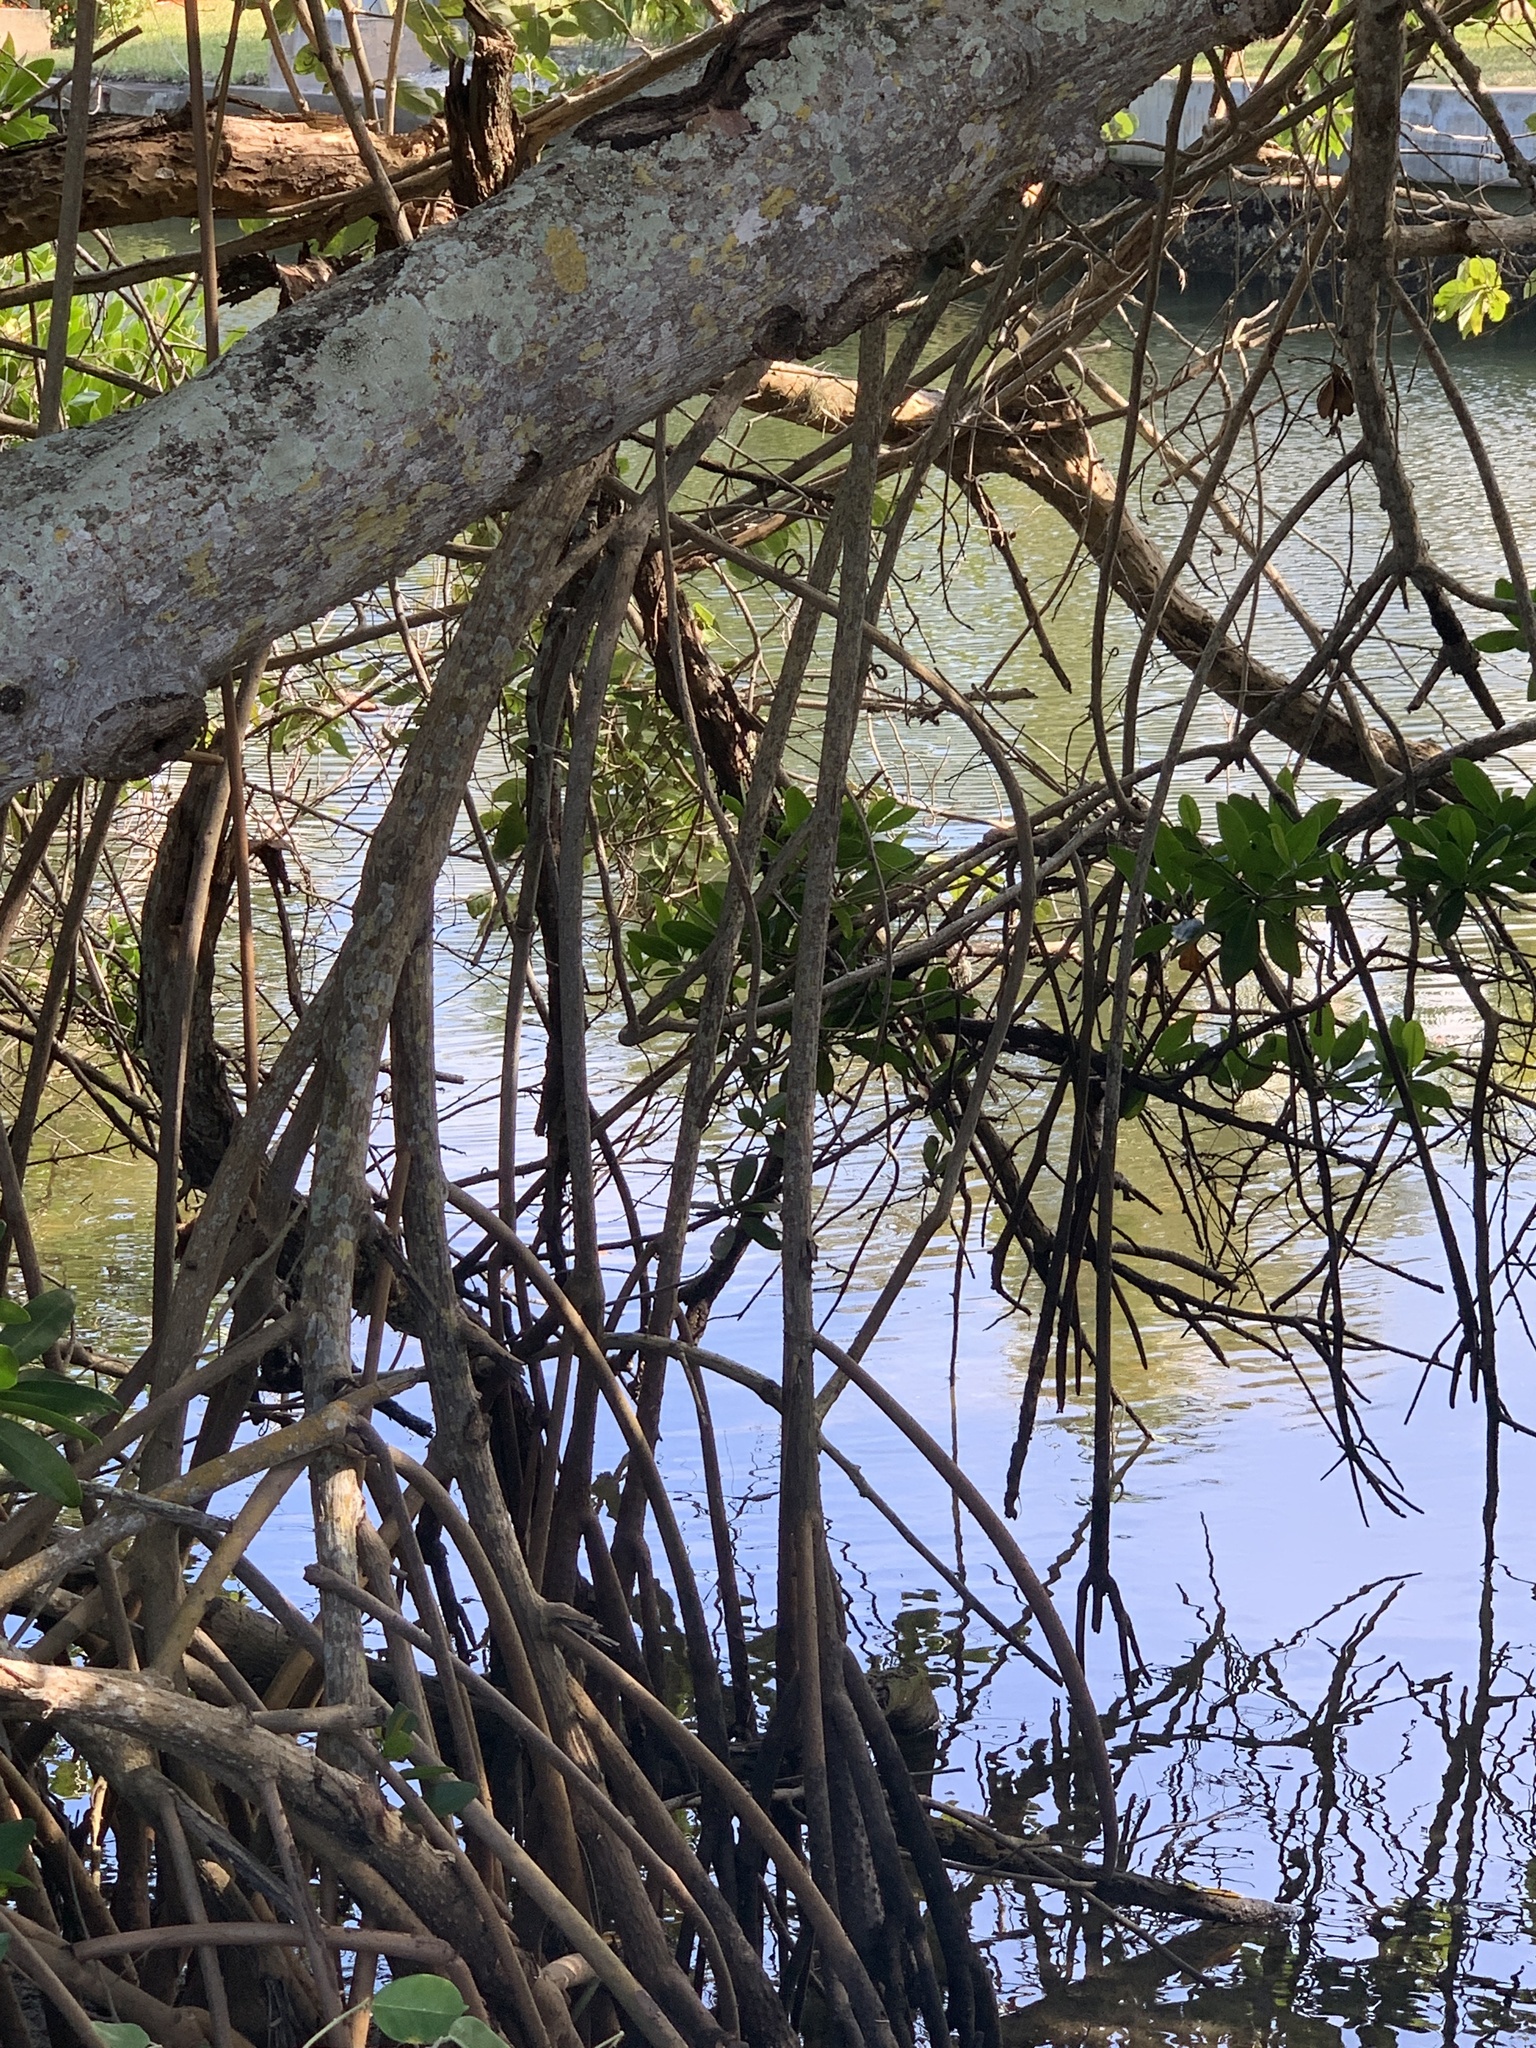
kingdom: Plantae
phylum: Tracheophyta
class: Magnoliopsida
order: Malpighiales
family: Rhizophoraceae
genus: Rhizophora
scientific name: Rhizophora mangle
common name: Red mangrove
